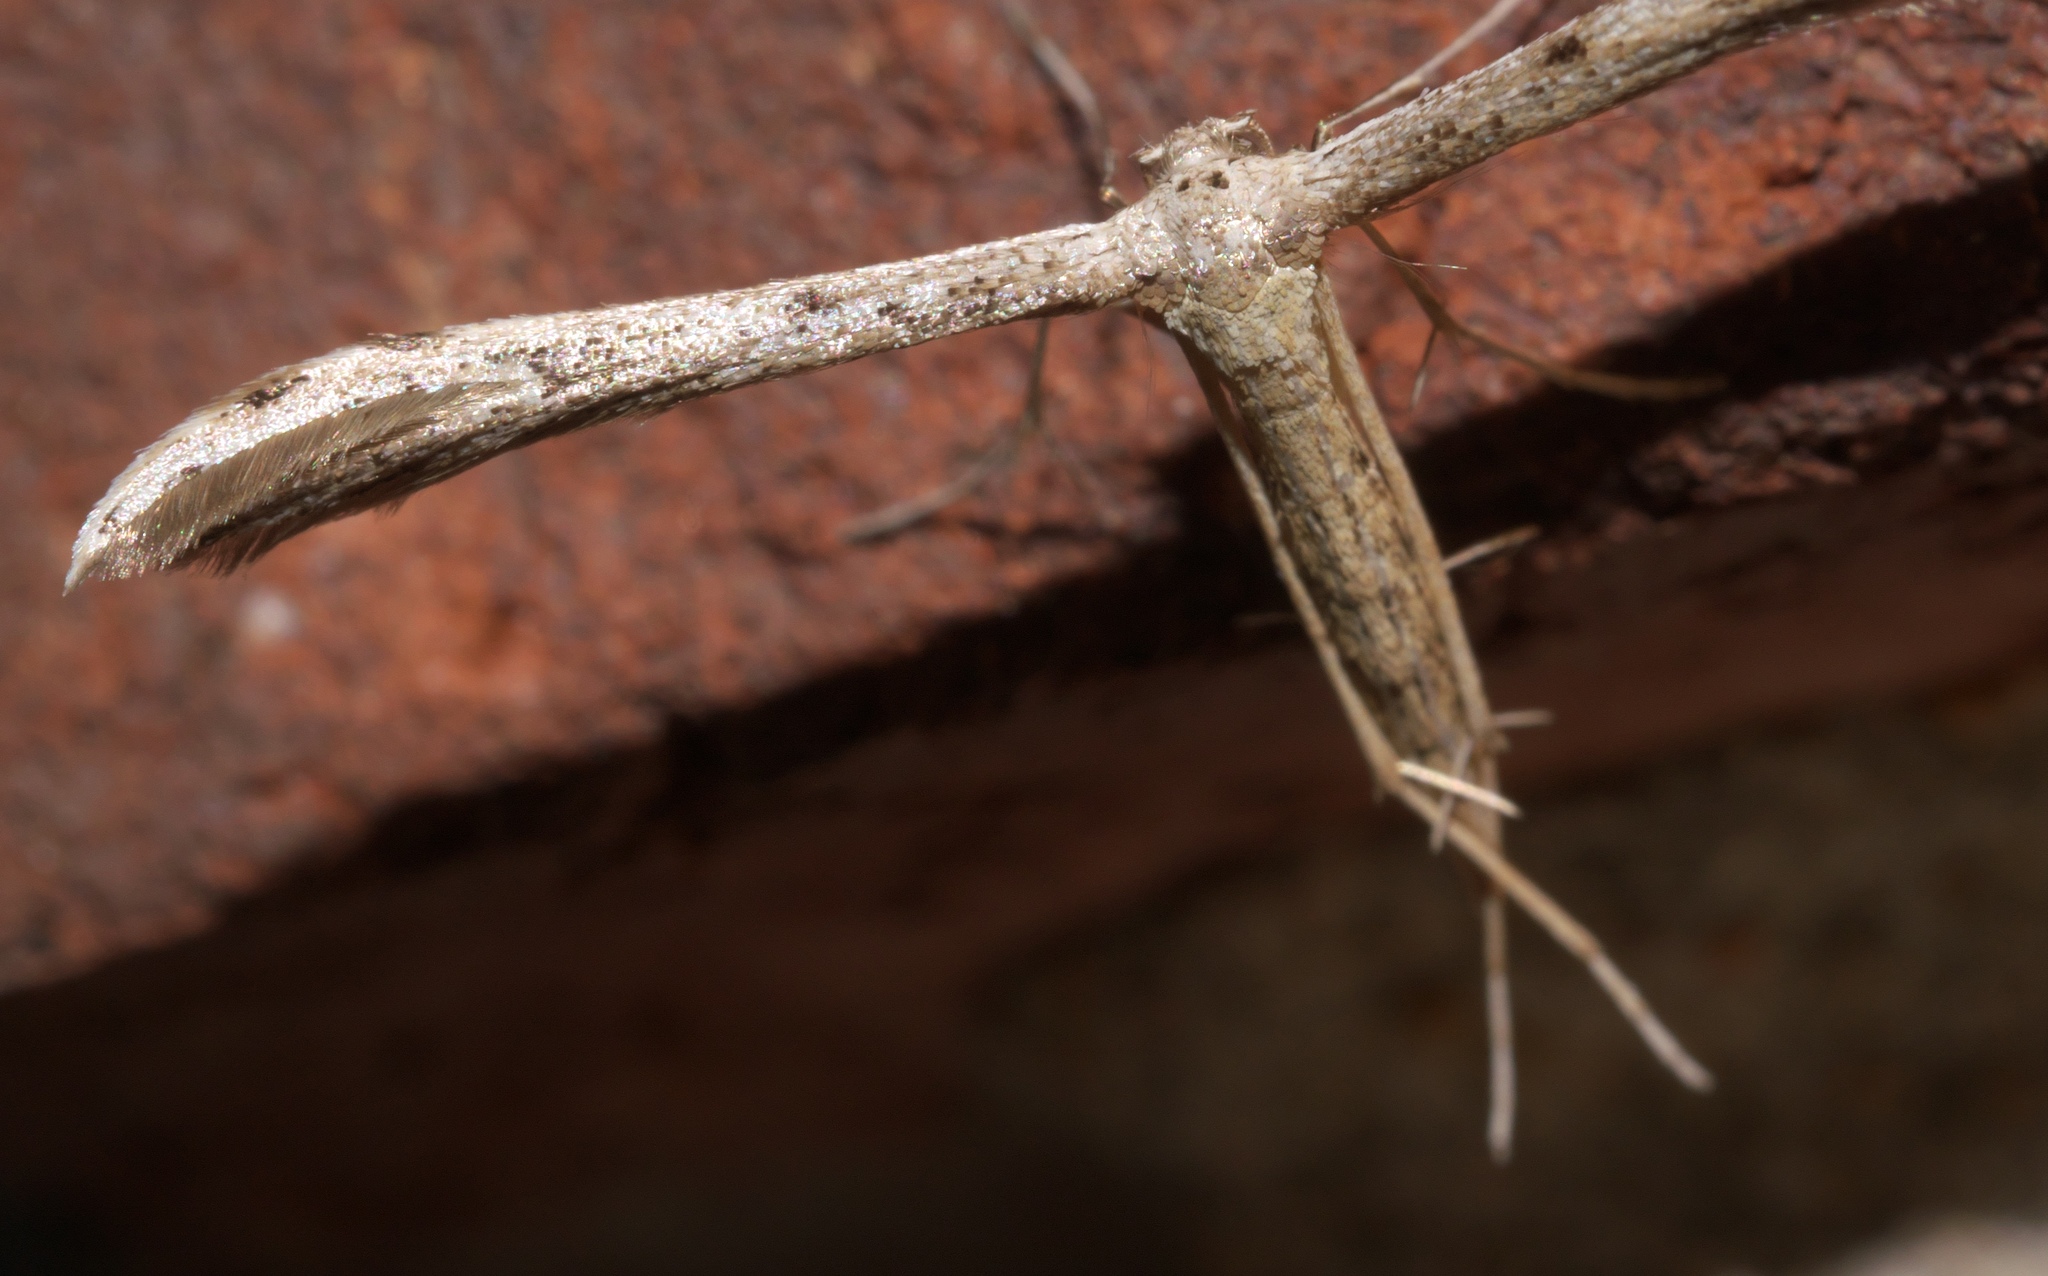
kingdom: Animalia
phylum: Arthropoda
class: Insecta
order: Lepidoptera
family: Pterophoridae
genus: Pselnophorus
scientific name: Pselnophorus belfragei
